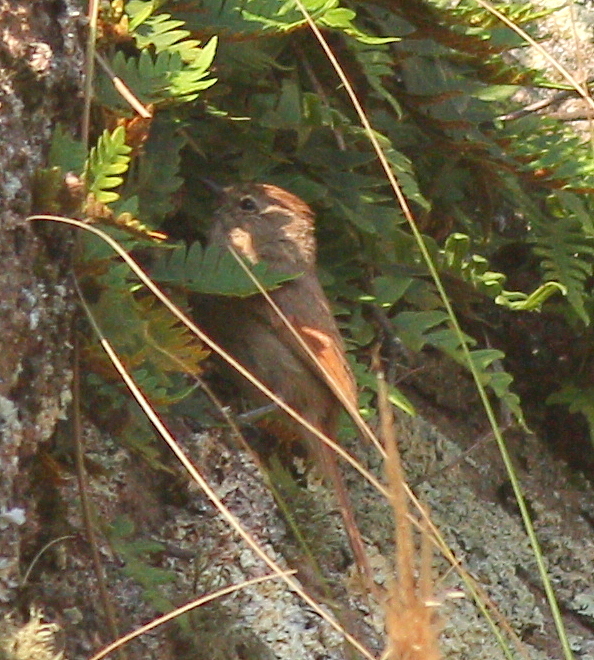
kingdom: Animalia
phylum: Chordata
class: Aves
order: Passeriformes
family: Furnariidae
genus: Leptasthenura
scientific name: Leptasthenura fuliginiceps
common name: Brown-capped tit-spinetail
